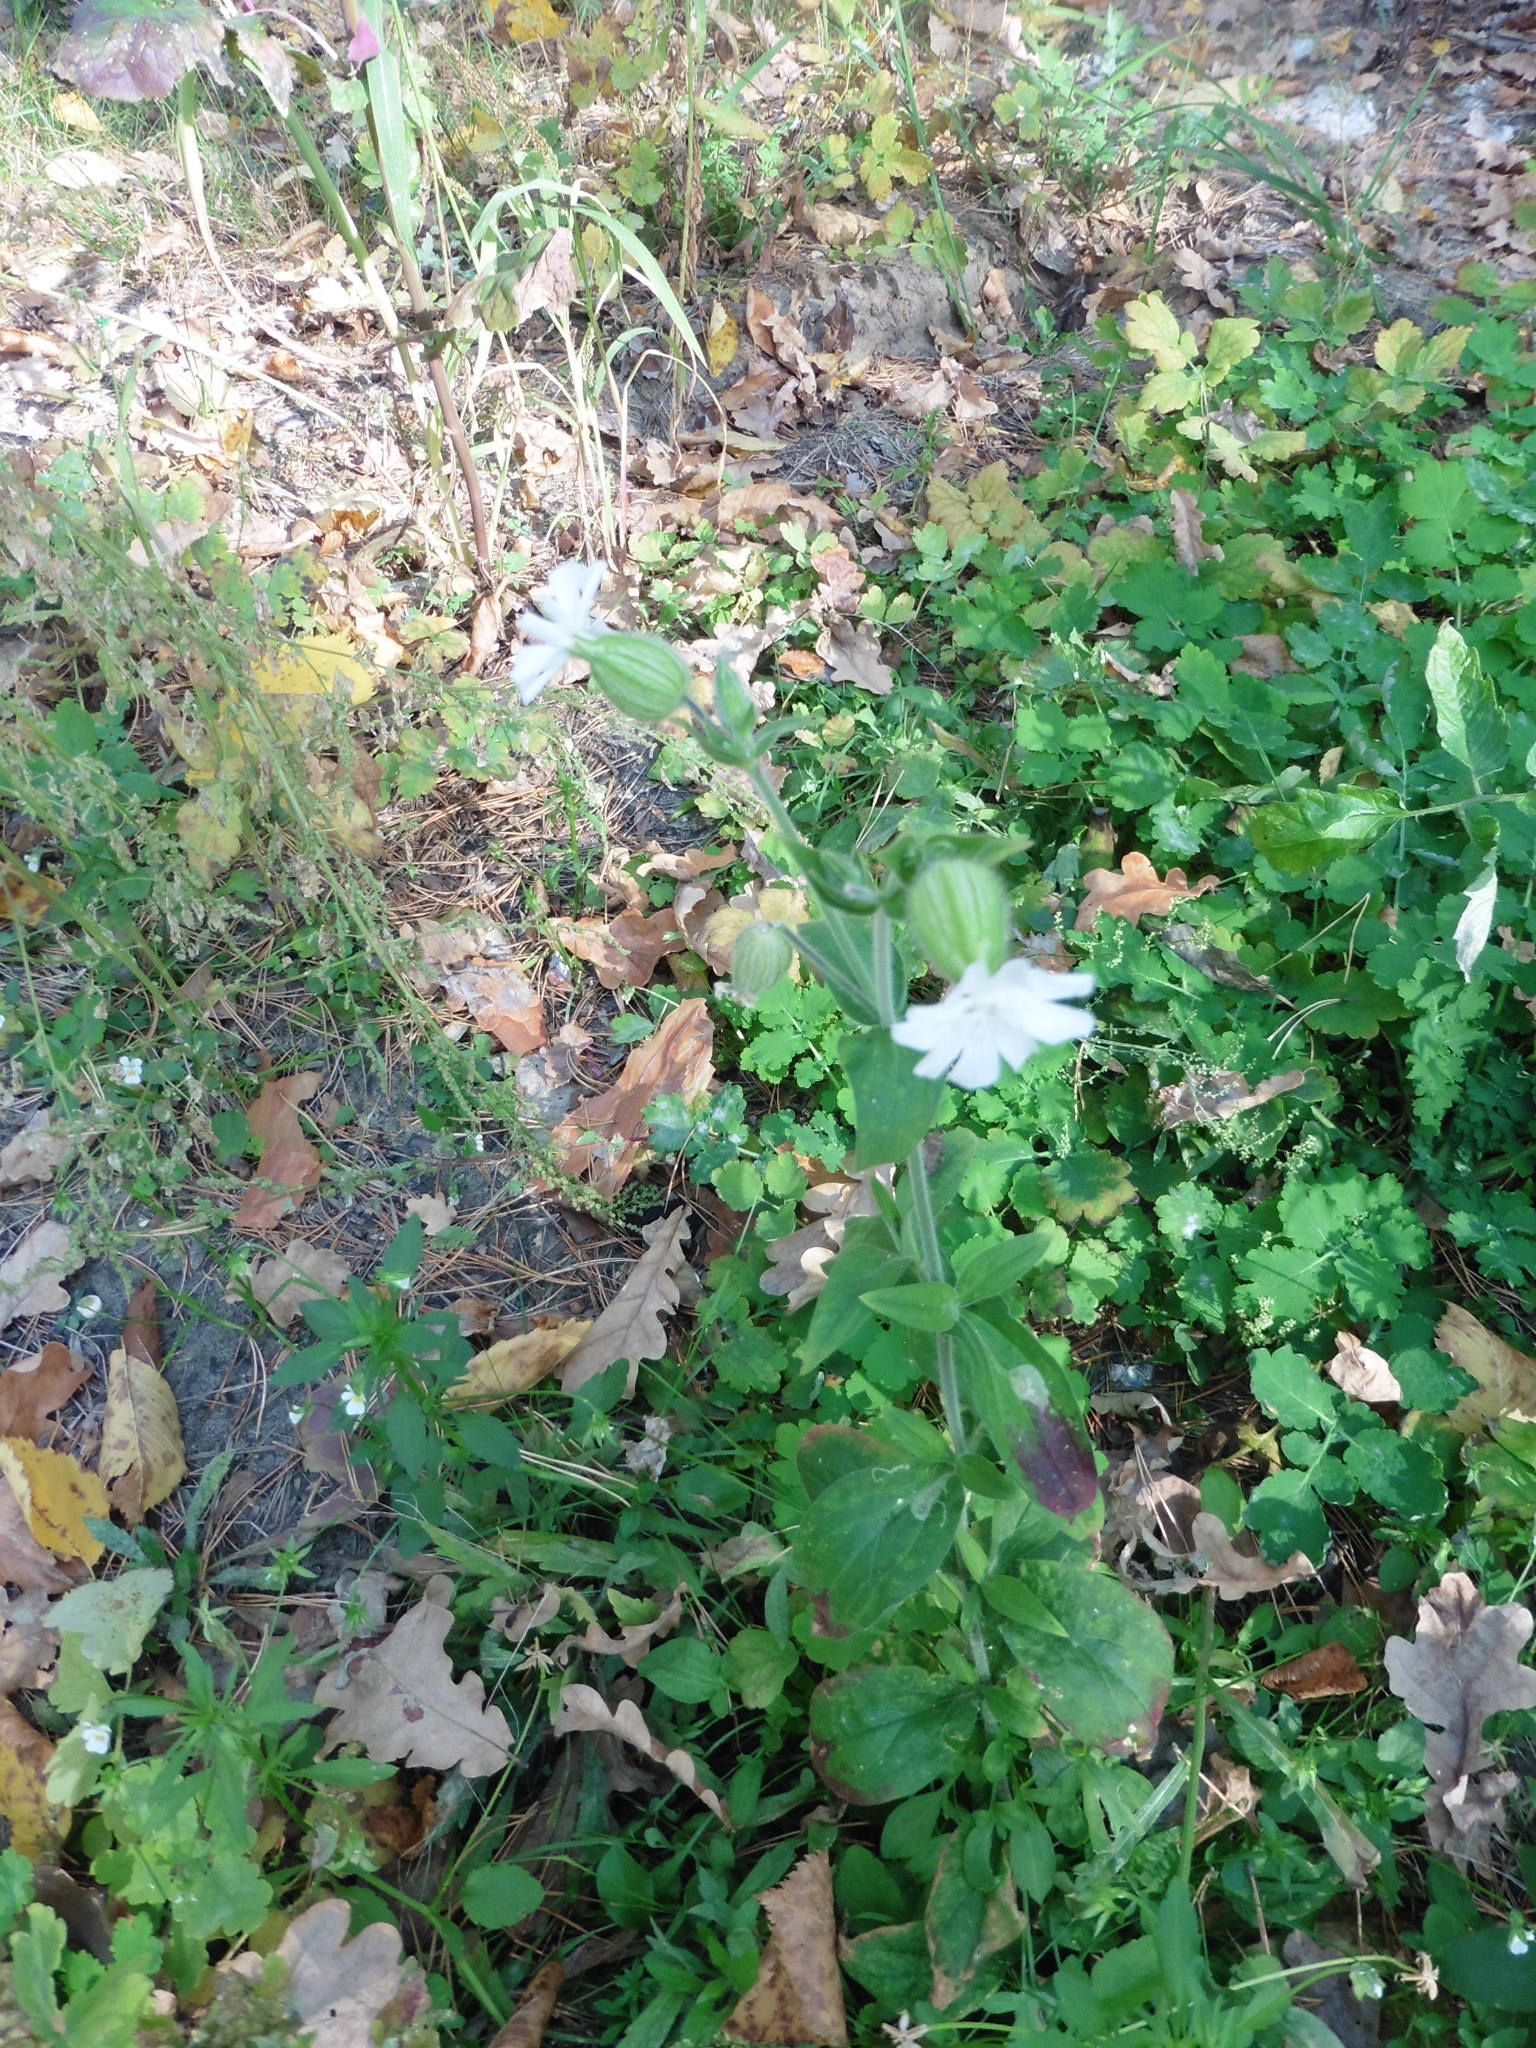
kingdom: Plantae
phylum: Tracheophyta
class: Magnoliopsida
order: Caryophyllales
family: Caryophyllaceae
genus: Silene
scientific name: Silene latifolia
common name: White campion
